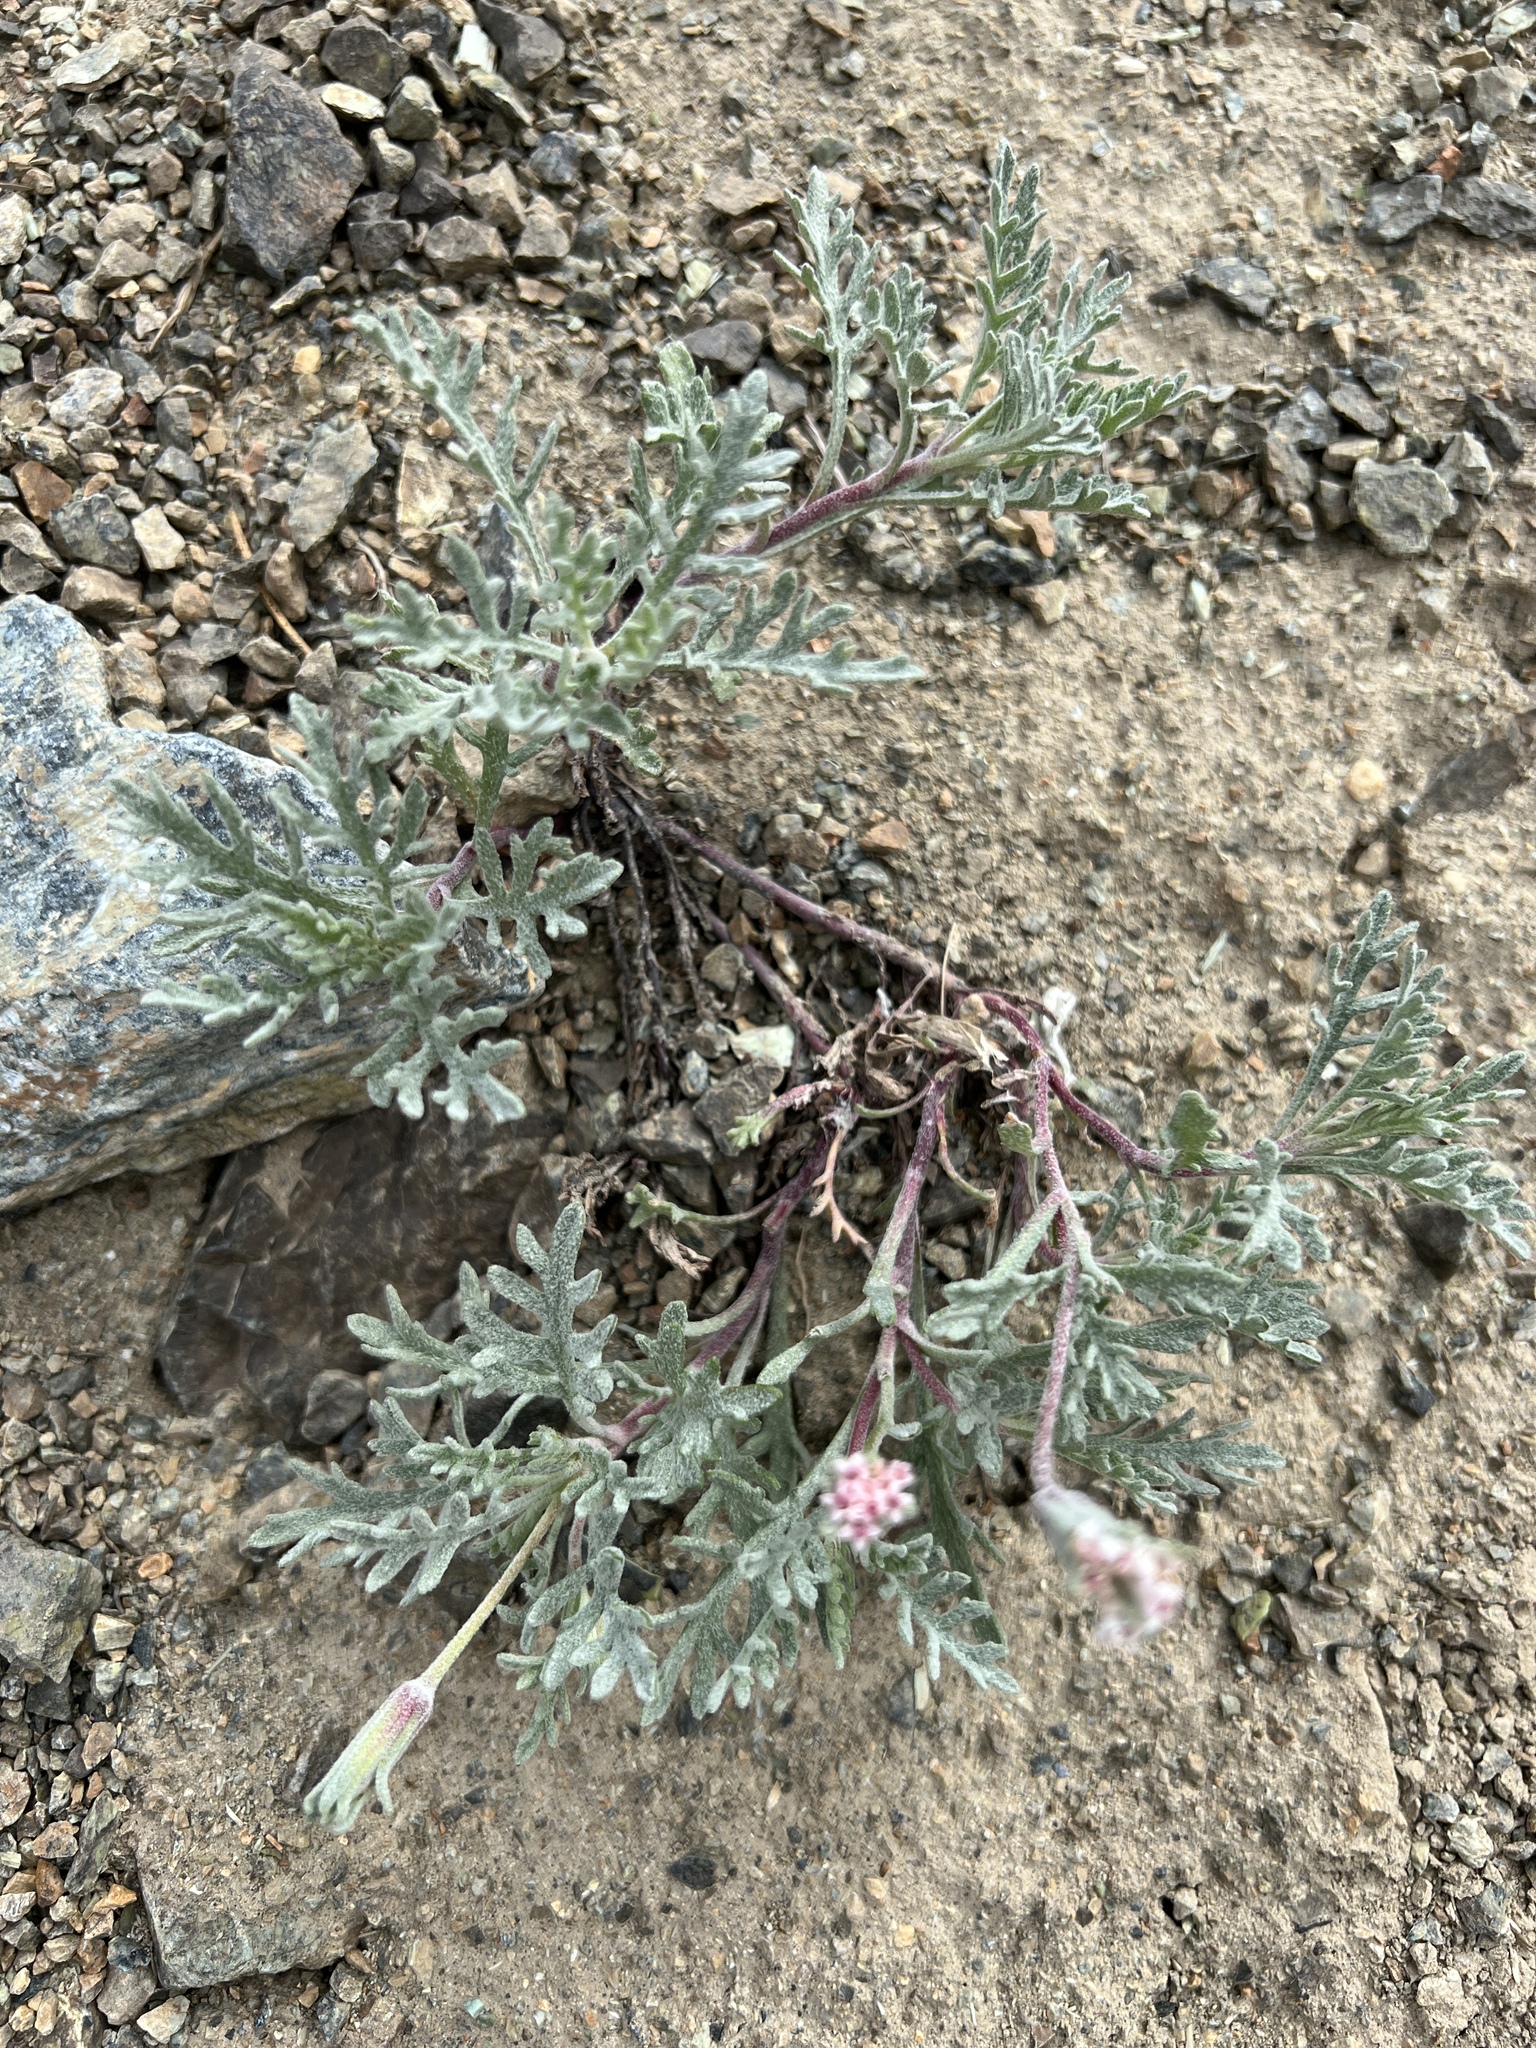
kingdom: Plantae
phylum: Tracheophyta
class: Magnoliopsida
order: Asterales
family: Asteraceae
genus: Chaenactis
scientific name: Chaenactis thompsonii
